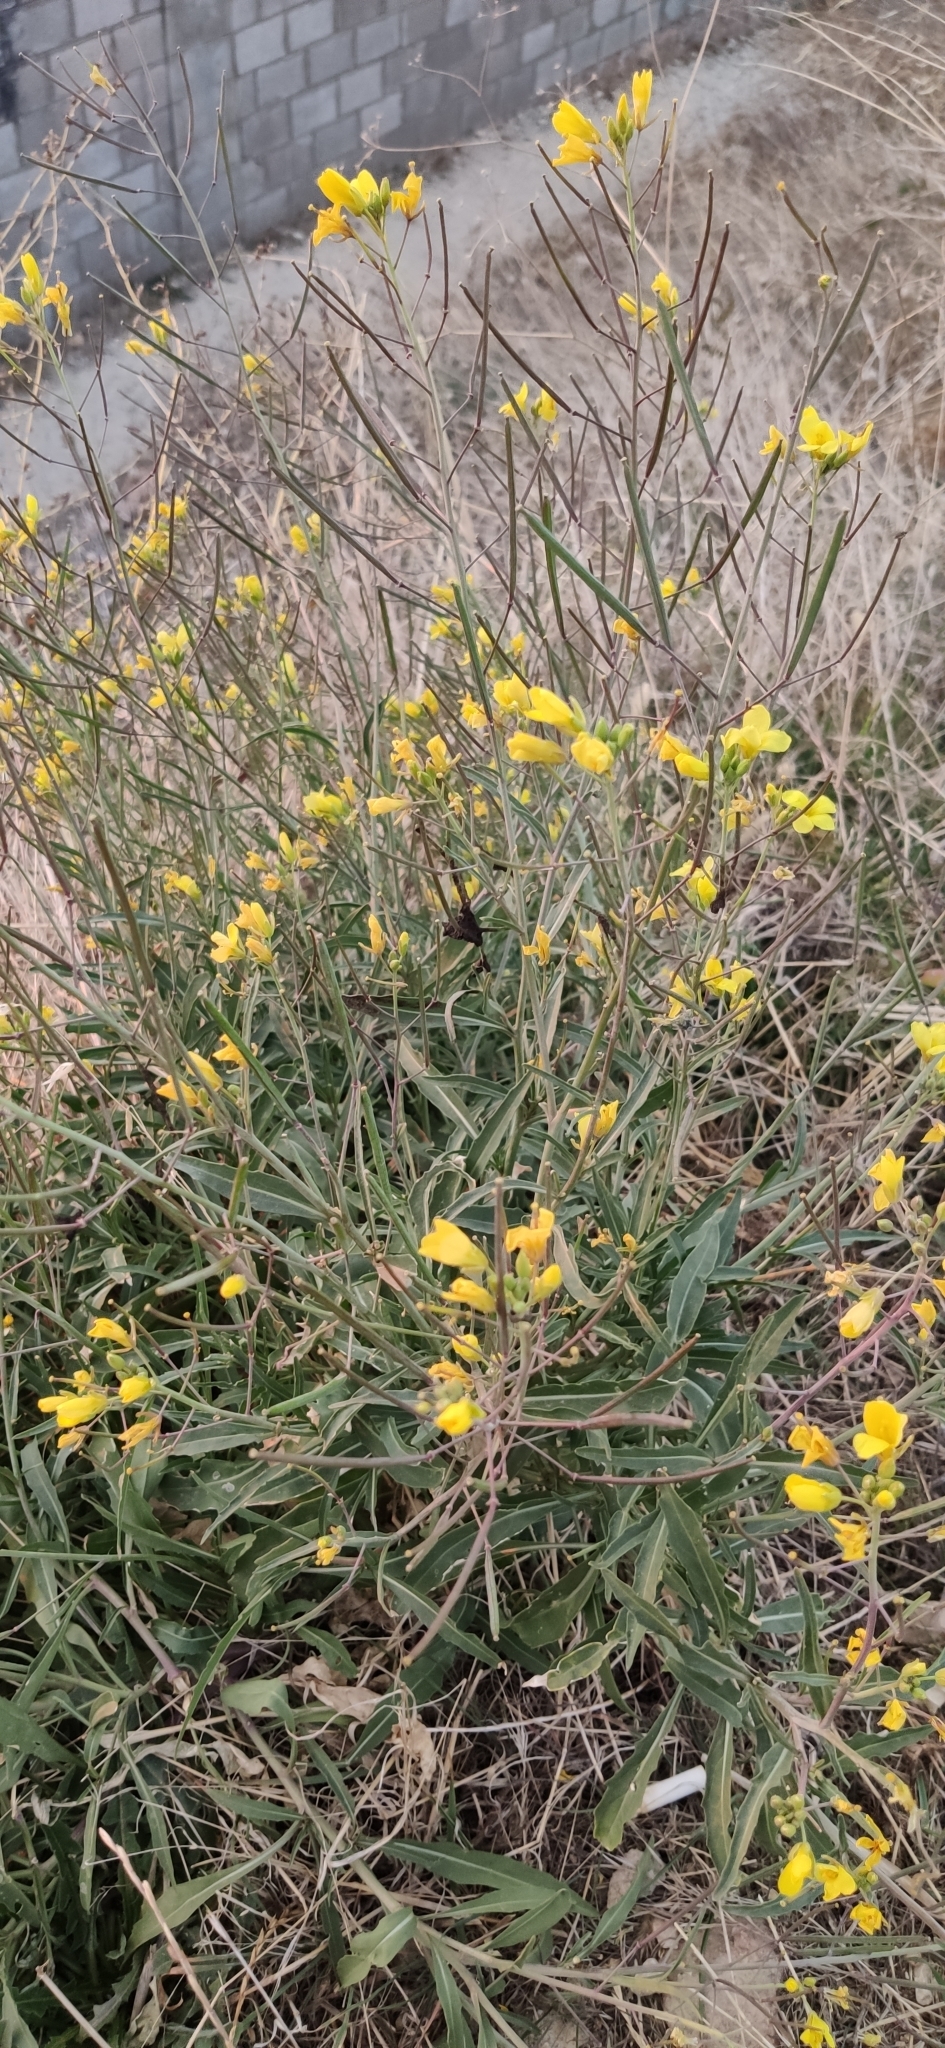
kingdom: Plantae
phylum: Tracheophyta
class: Magnoliopsida
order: Brassicales
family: Brassicaceae
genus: Diplotaxis
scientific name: Diplotaxis tenuifolia
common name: Perennial wall-rocket
